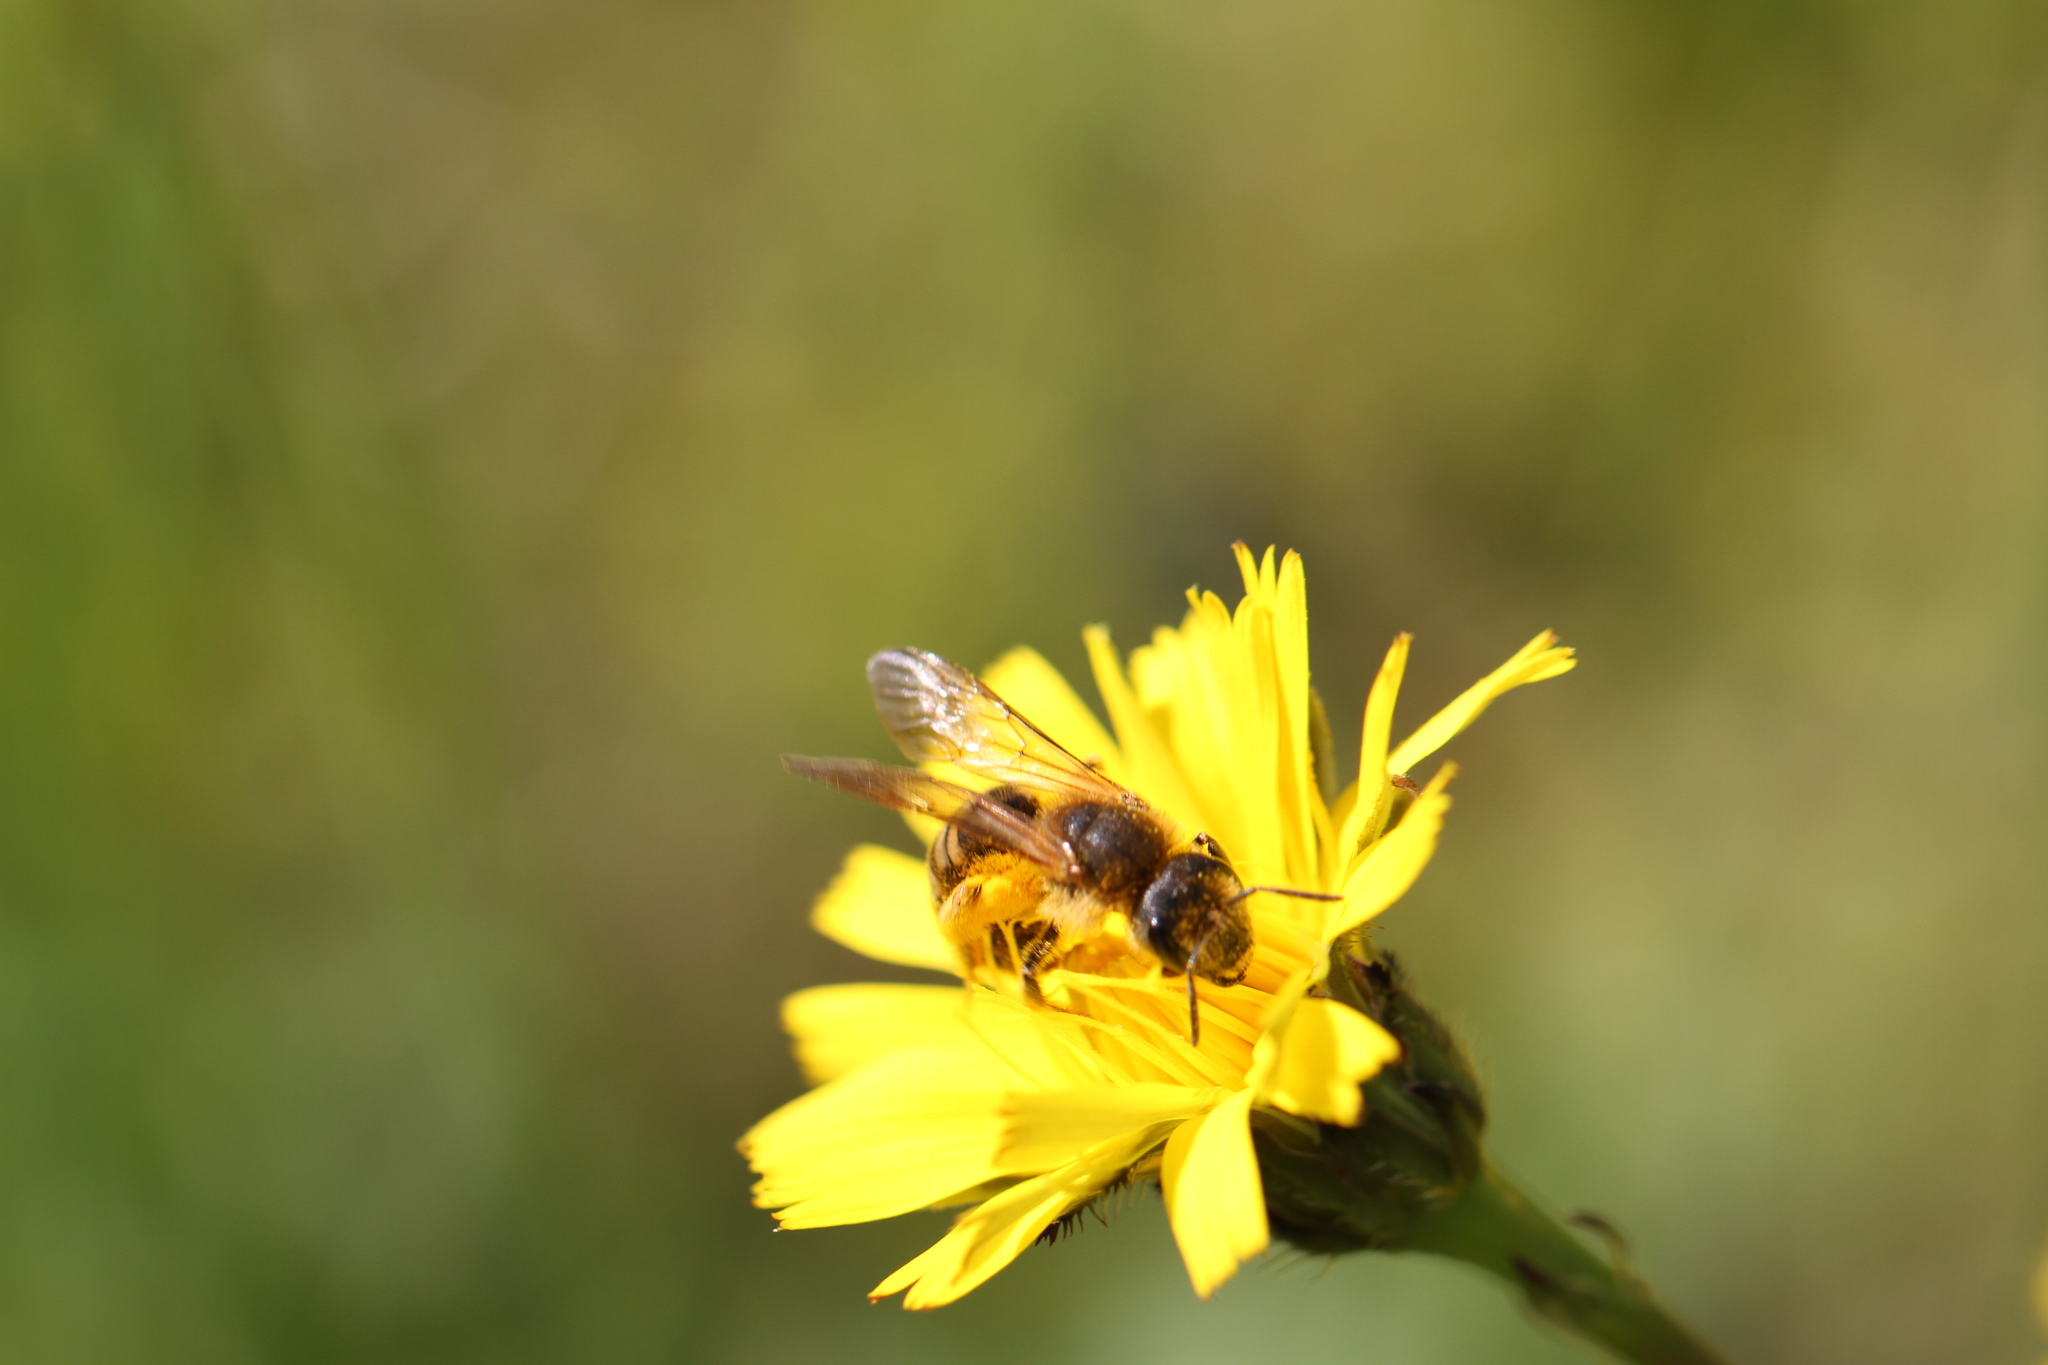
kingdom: Animalia
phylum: Arthropoda
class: Insecta
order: Hymenoptera
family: Halictidae
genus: Halictus
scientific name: Halictus scabiosae
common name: Great banded furrow bee
